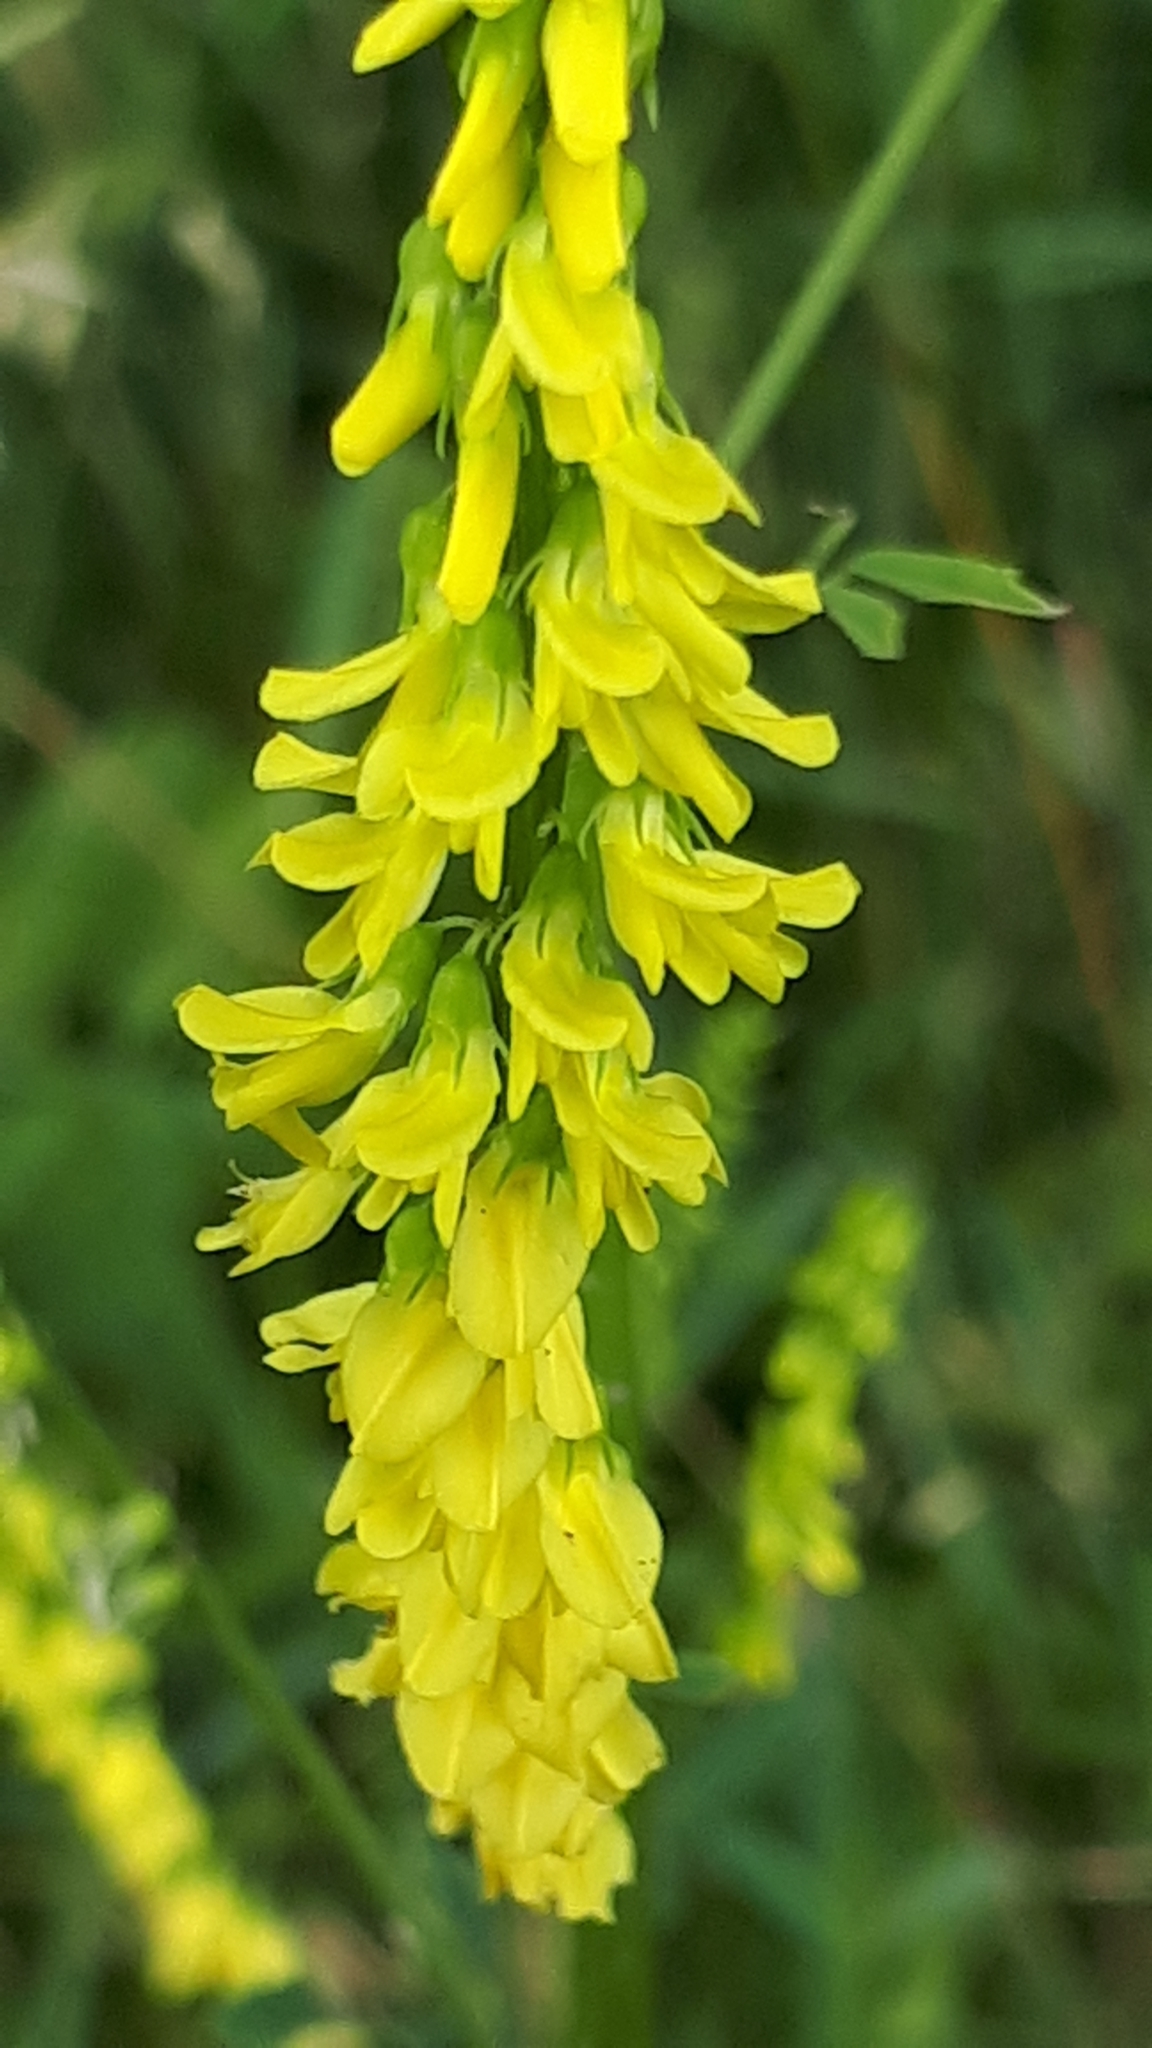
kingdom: Plantae
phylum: Tracheophyta
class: Magnoliopsida
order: Fabales
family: Fabaceae
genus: Melilotus
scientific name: Melilotus officinalis
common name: Sweetclover
